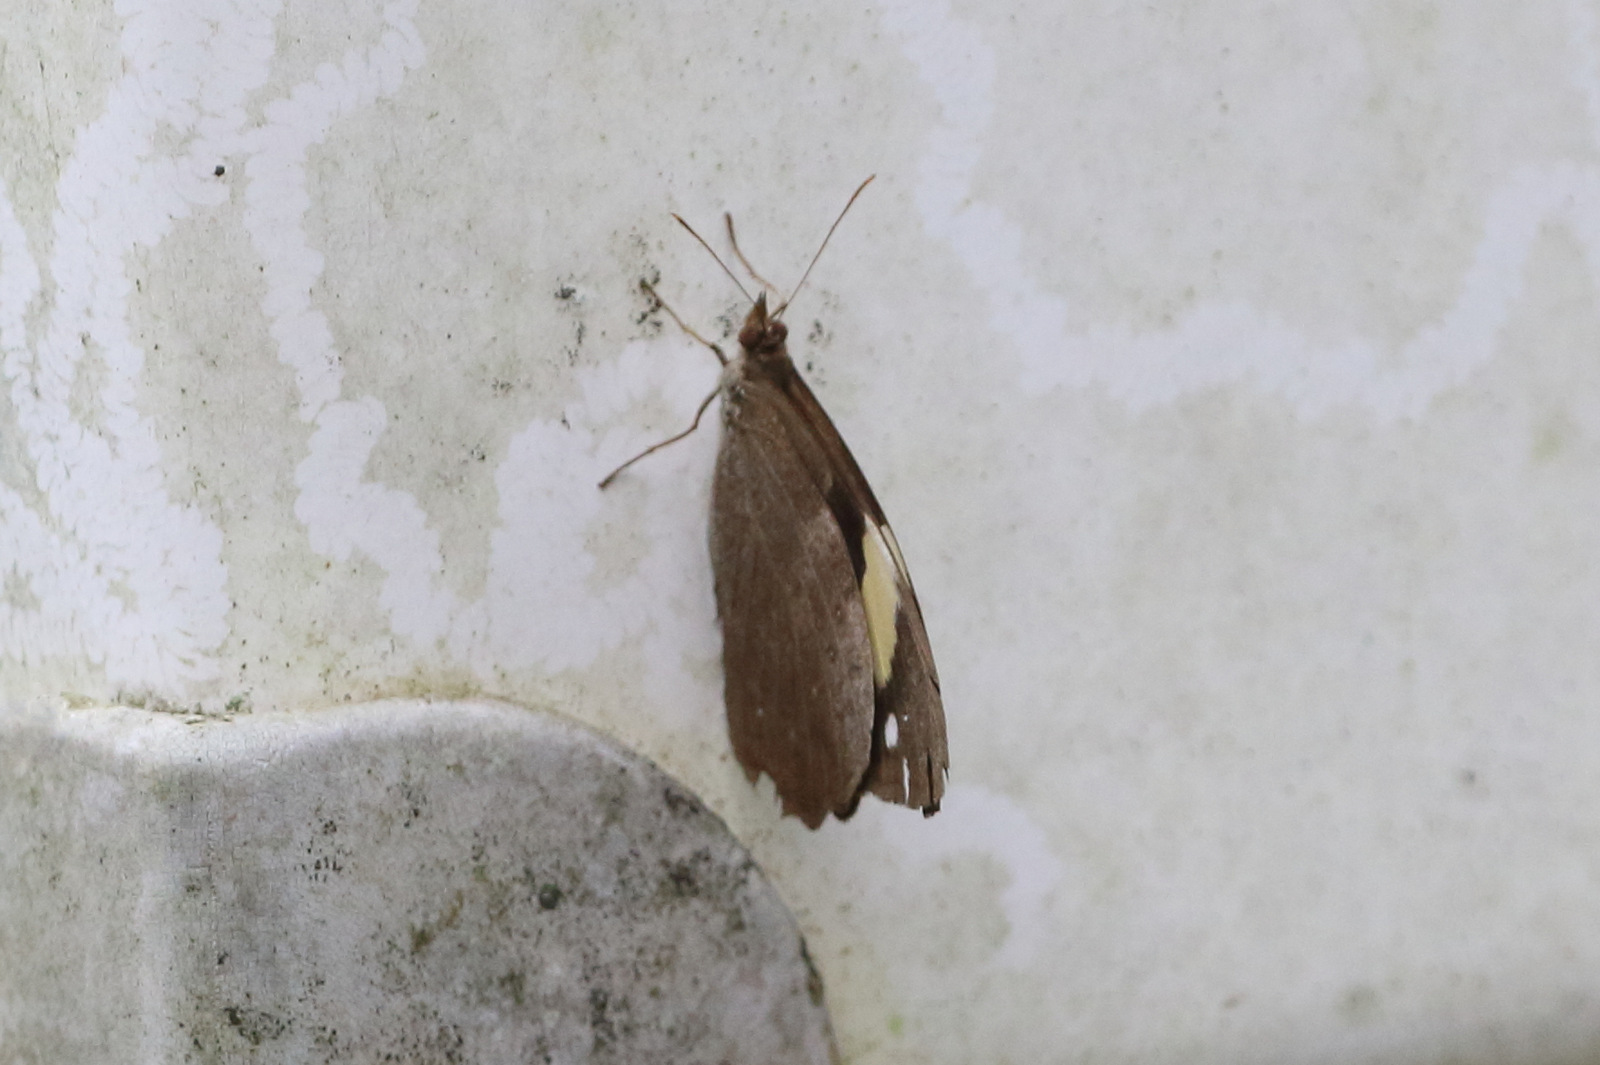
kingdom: Animalia
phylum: Arthropoda
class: Insecta
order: Lepidoptera
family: Nymphalidae
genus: Heteronympha
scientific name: Heteronympha mirifica
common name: Wonder brown
